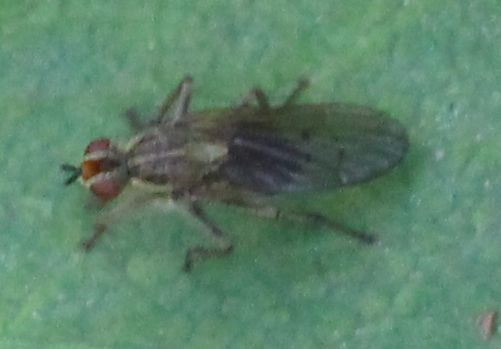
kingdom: Animalia
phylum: Arthropoda
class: Insecta
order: Diptera
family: Scathophagidae
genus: Scathophaga
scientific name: Scathophaga stercoraria
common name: Yellow dung fly
